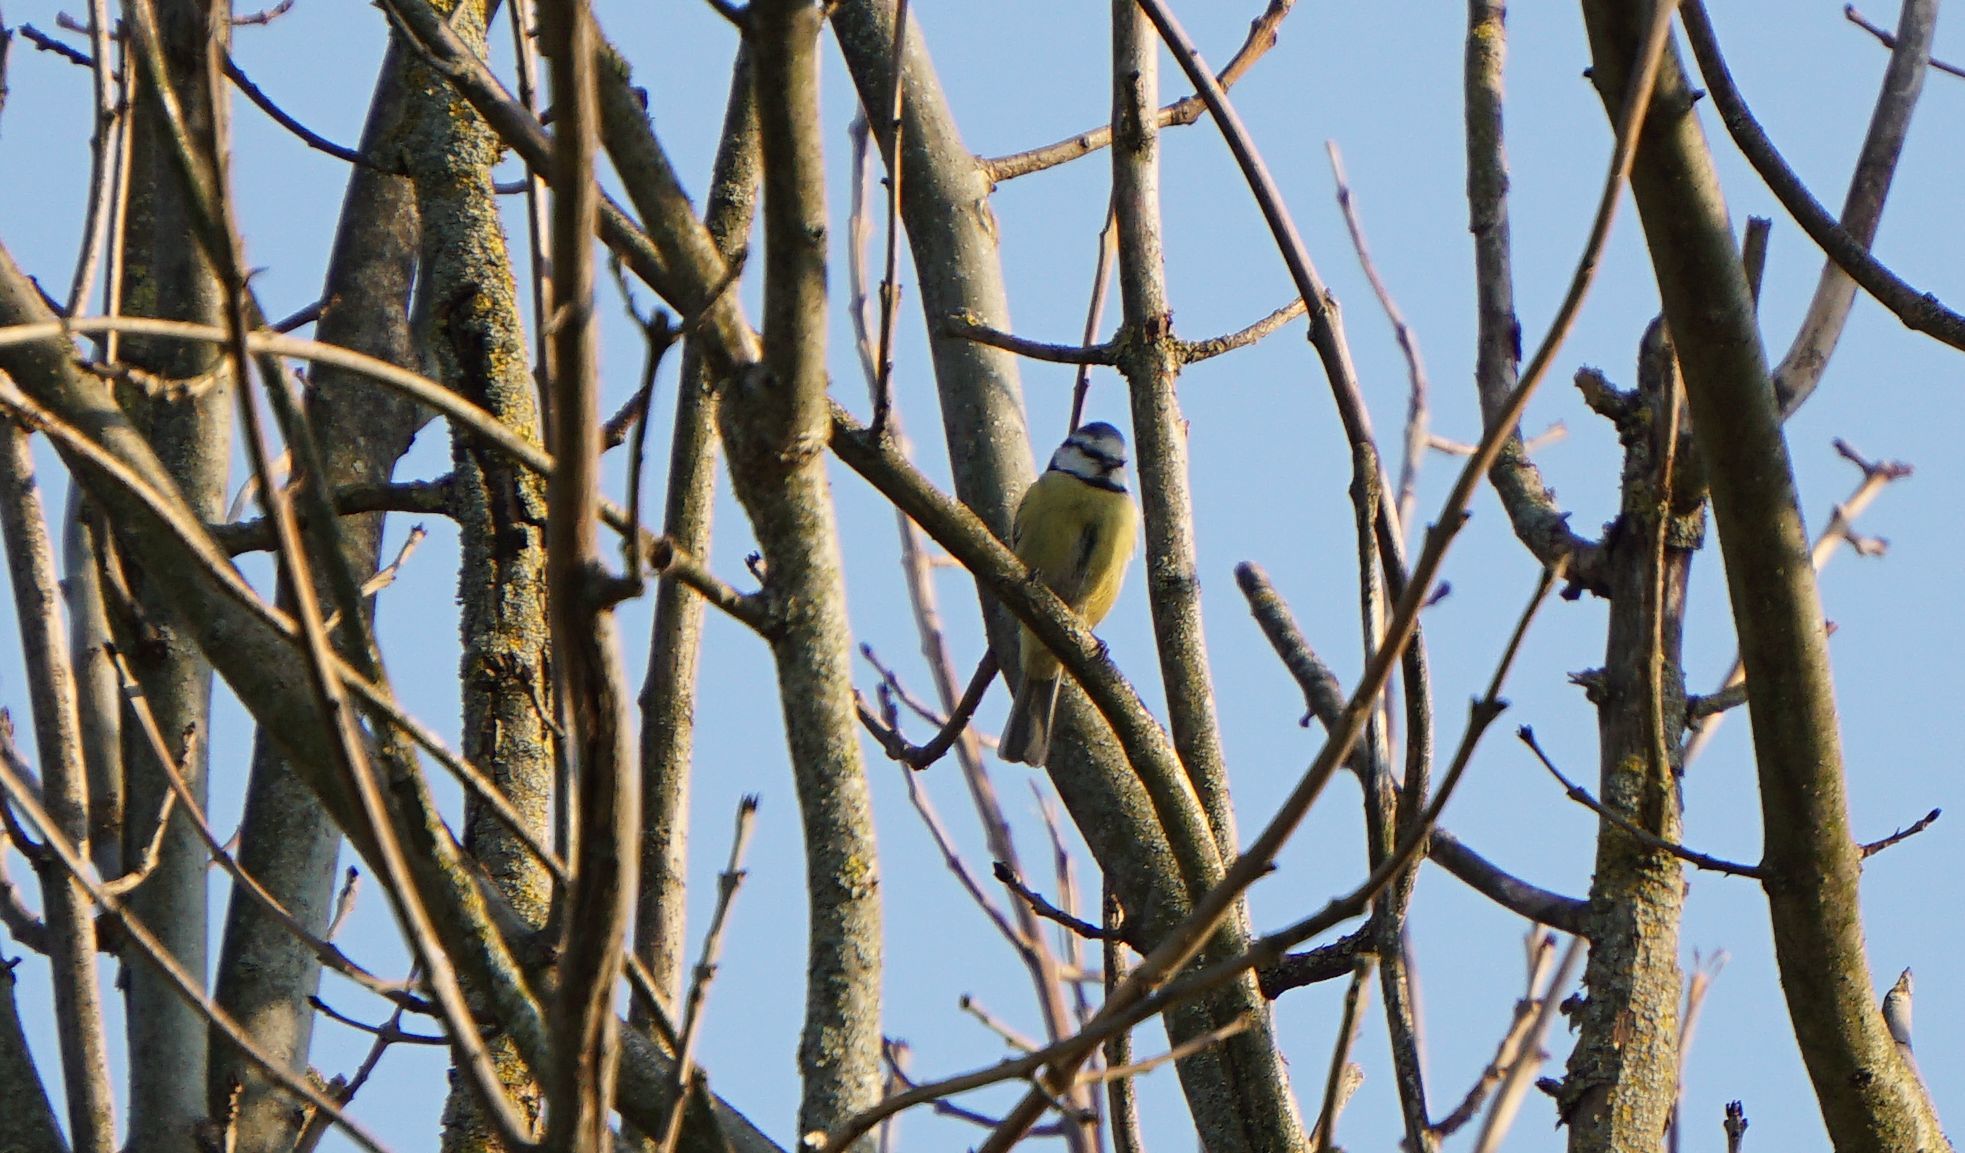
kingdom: Animalia
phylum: Chordata
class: Aves
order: Passeriformes
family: Paridae
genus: Cyanistes
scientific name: Cyanistes caeruleus
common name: Eurasian blue tit
